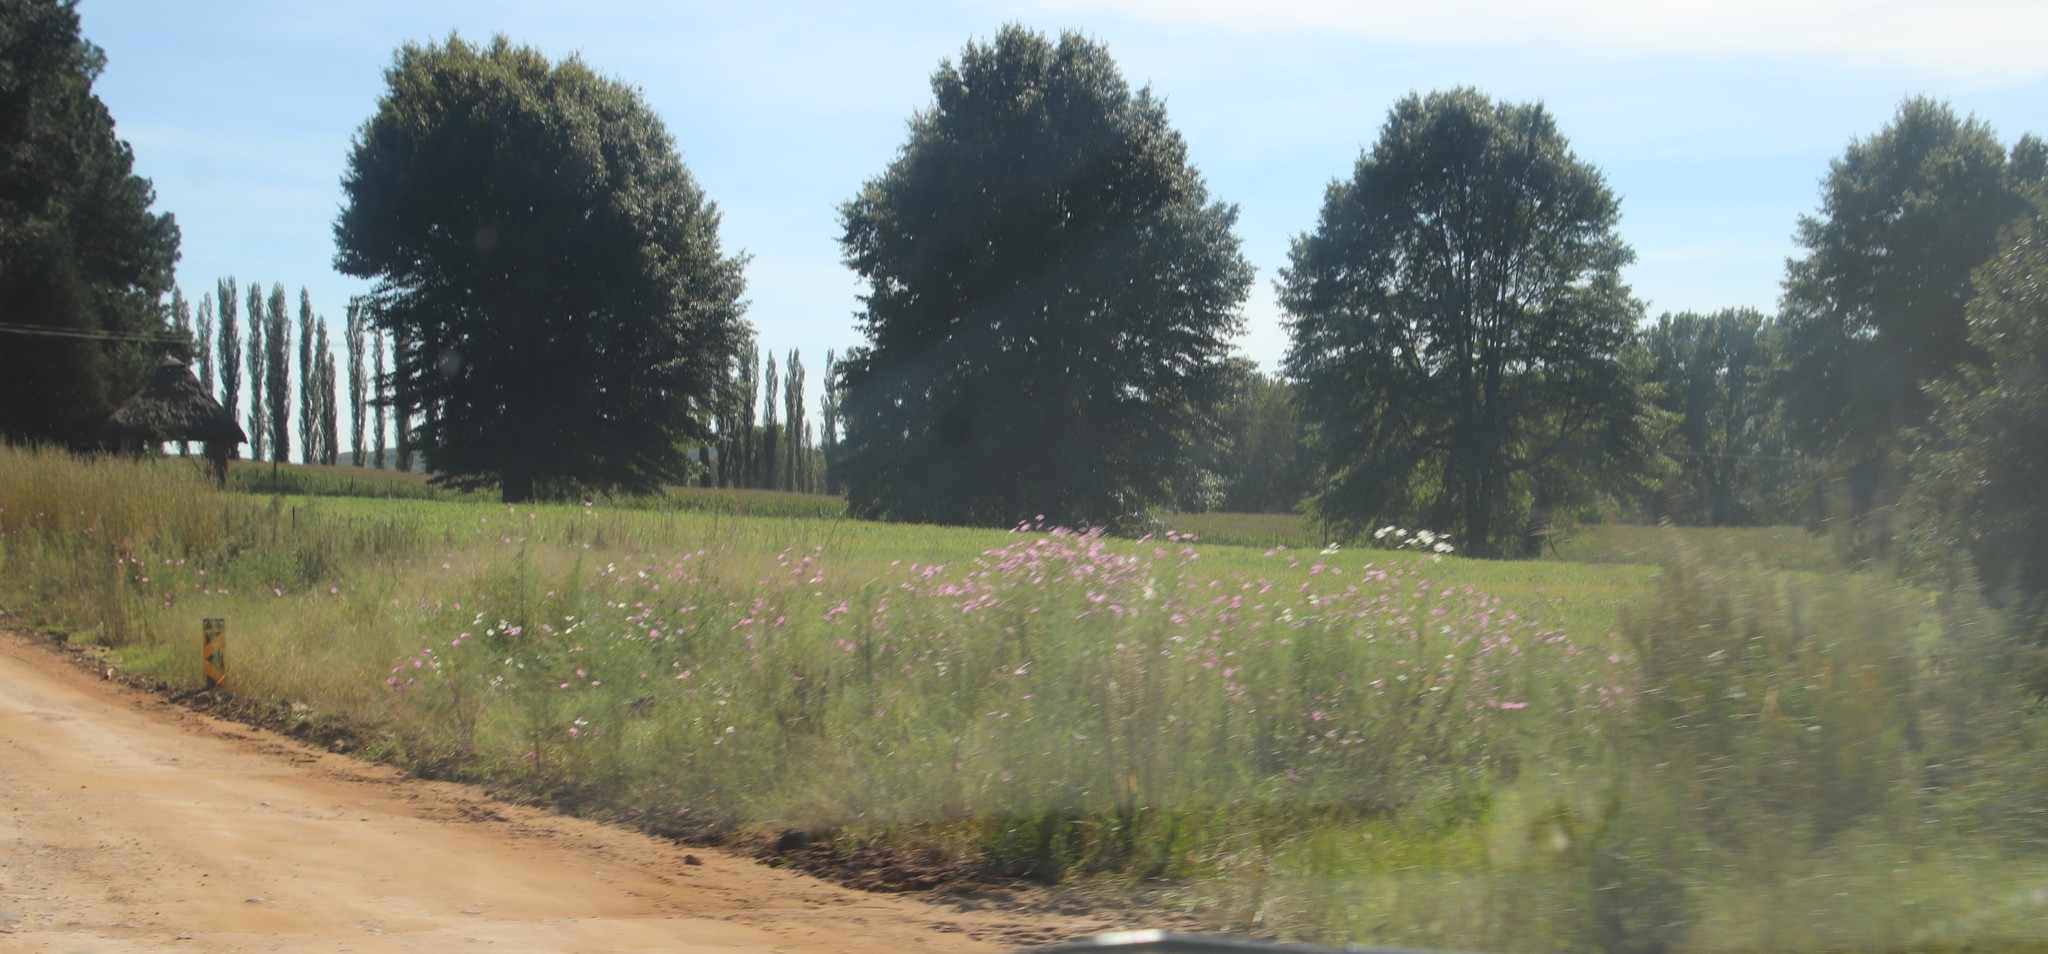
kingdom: Plantae
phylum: Tracheophyta
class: Magnoliopsida
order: Asterales
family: Asteraceae
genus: Cosmos
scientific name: Cosmos bipinnatus
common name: Garden cosmos
